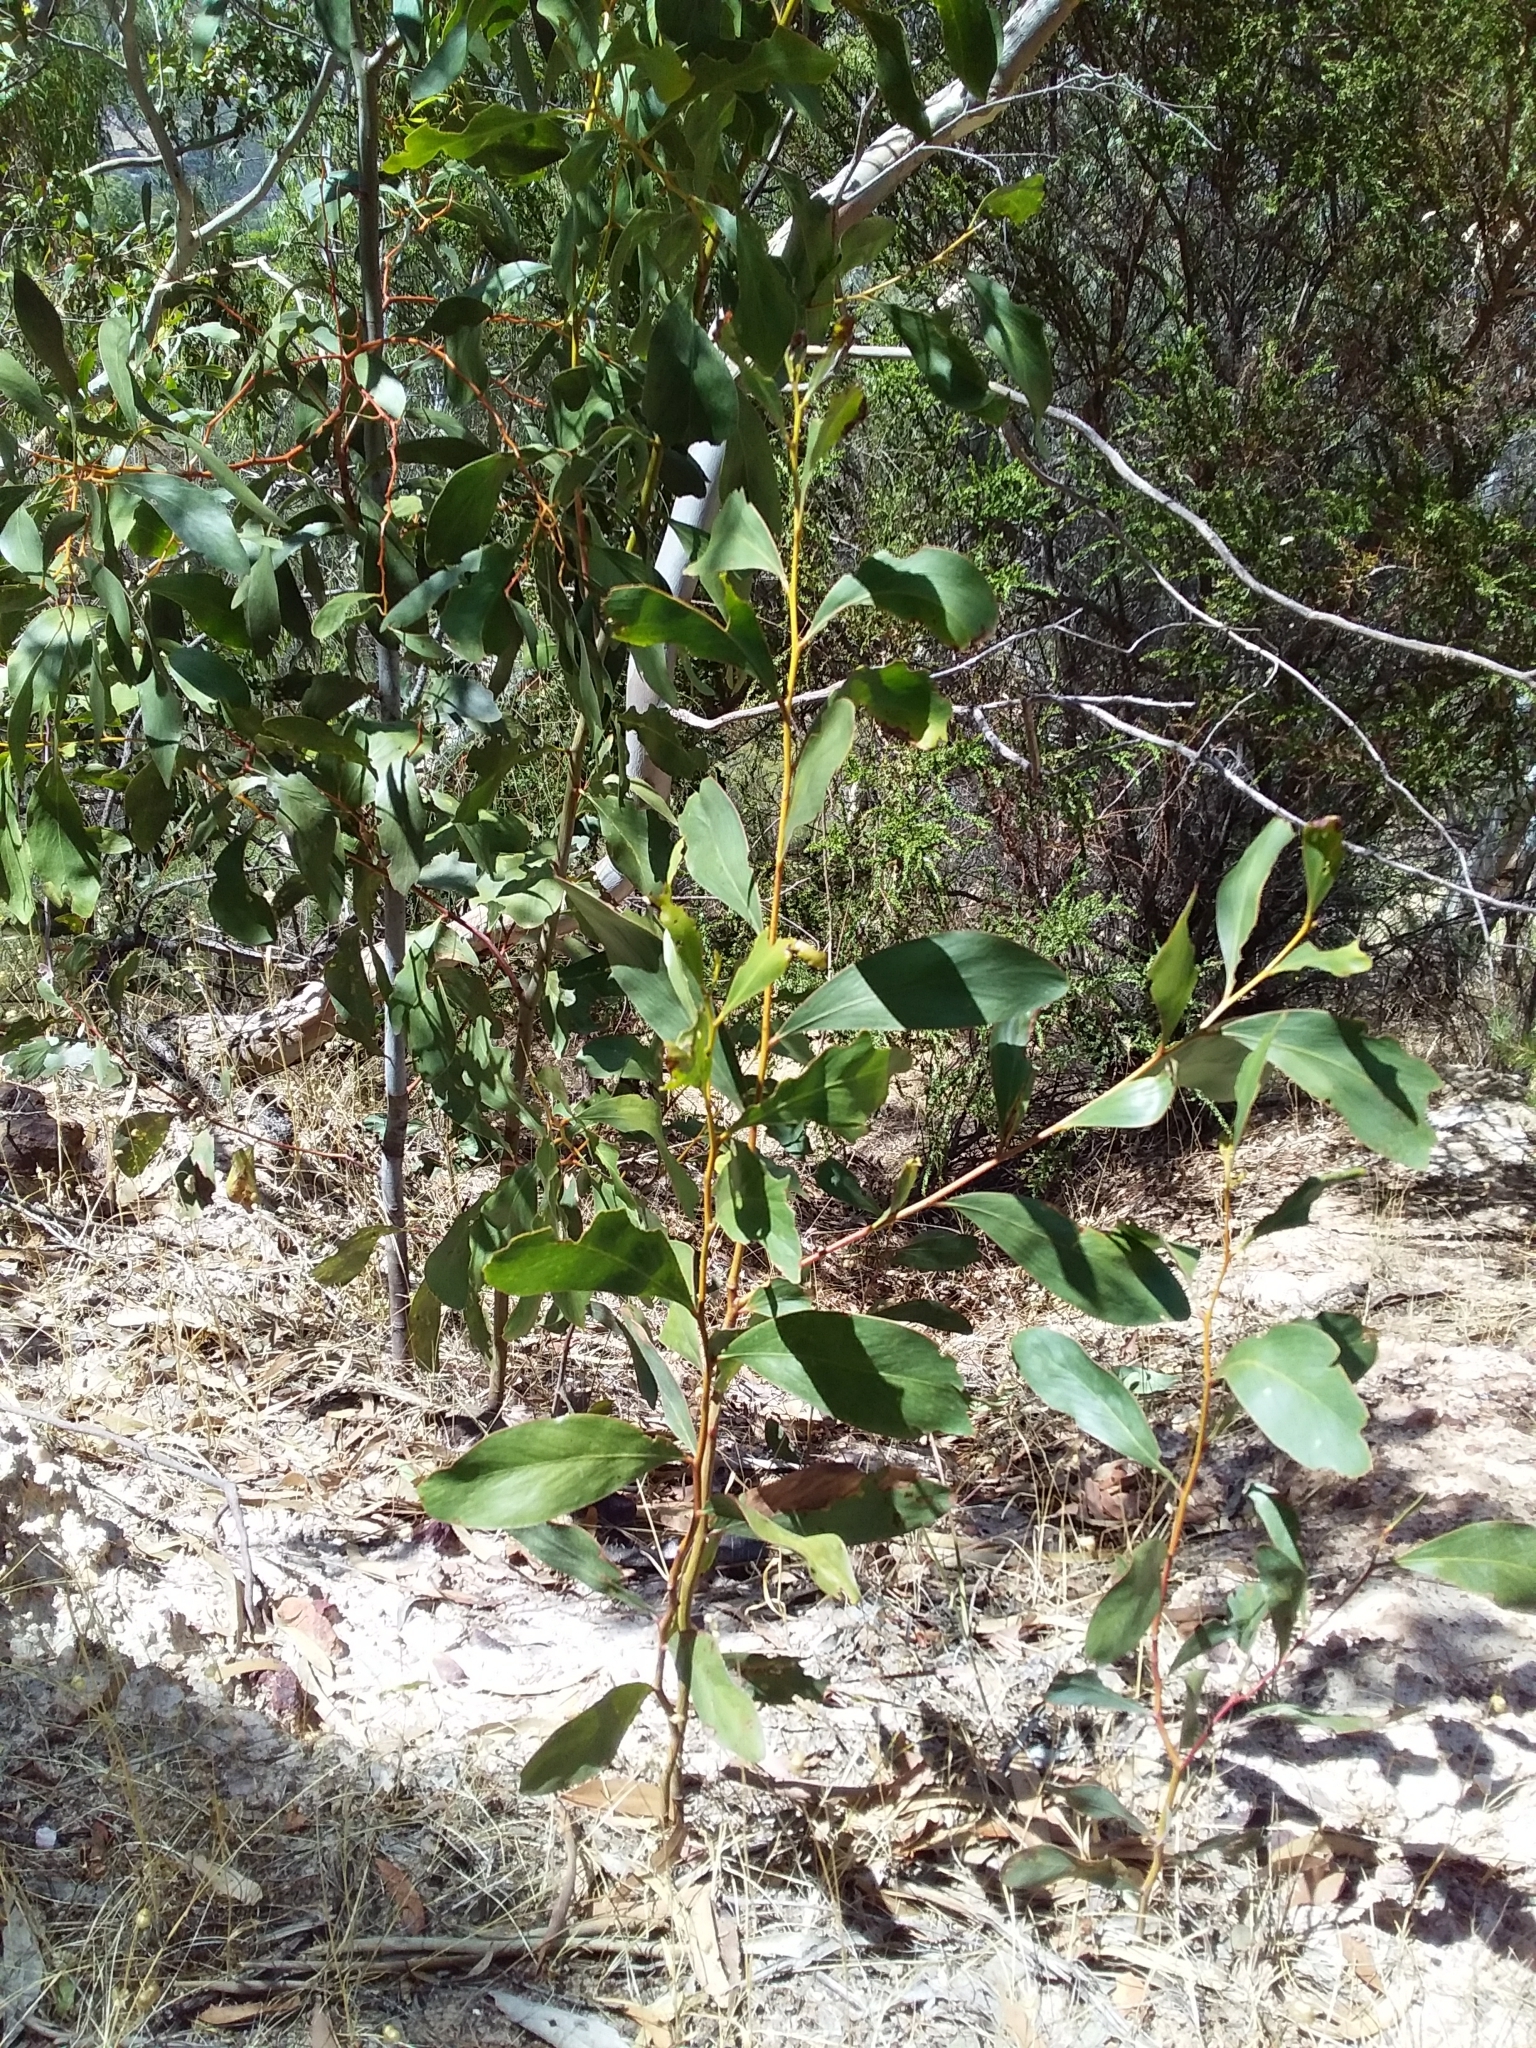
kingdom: Plantae
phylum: Tracheophyta
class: Magnoliopsida
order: Fabales
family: Fabaceae
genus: Acacia
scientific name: Acacia pycnantha
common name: Golden wattle
